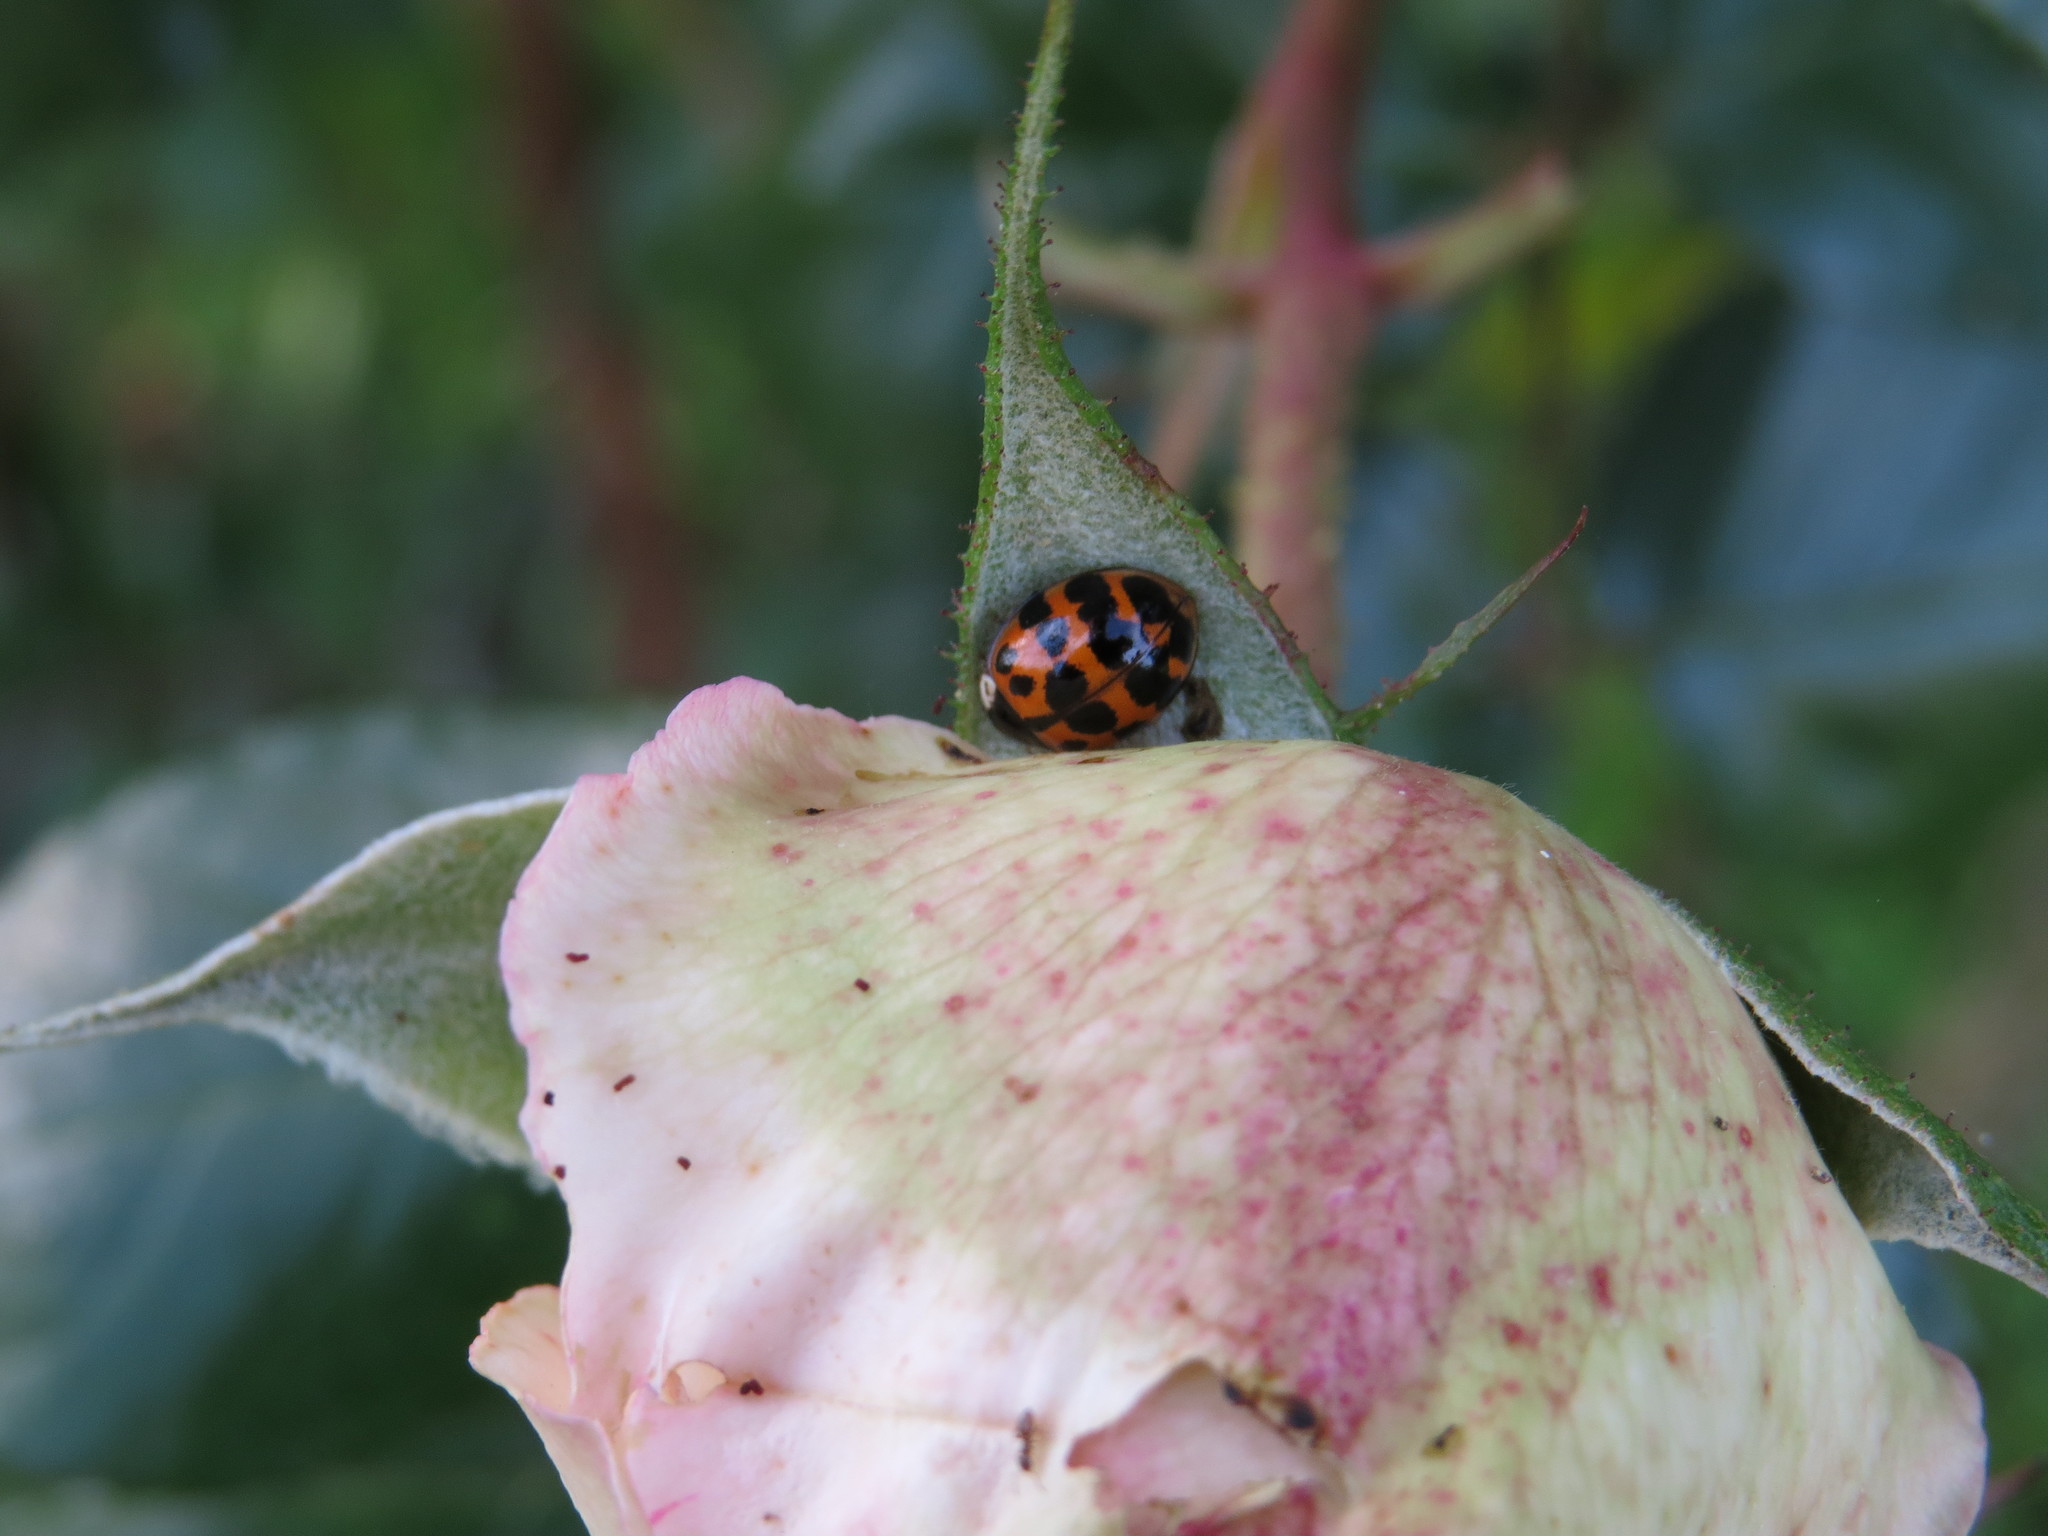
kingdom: Animalia
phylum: Arthropoda
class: Insecta
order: Coleoptera
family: Coccinellidae
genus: Harmonia
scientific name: Harmonia axyridis
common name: Harlequin ladybird
